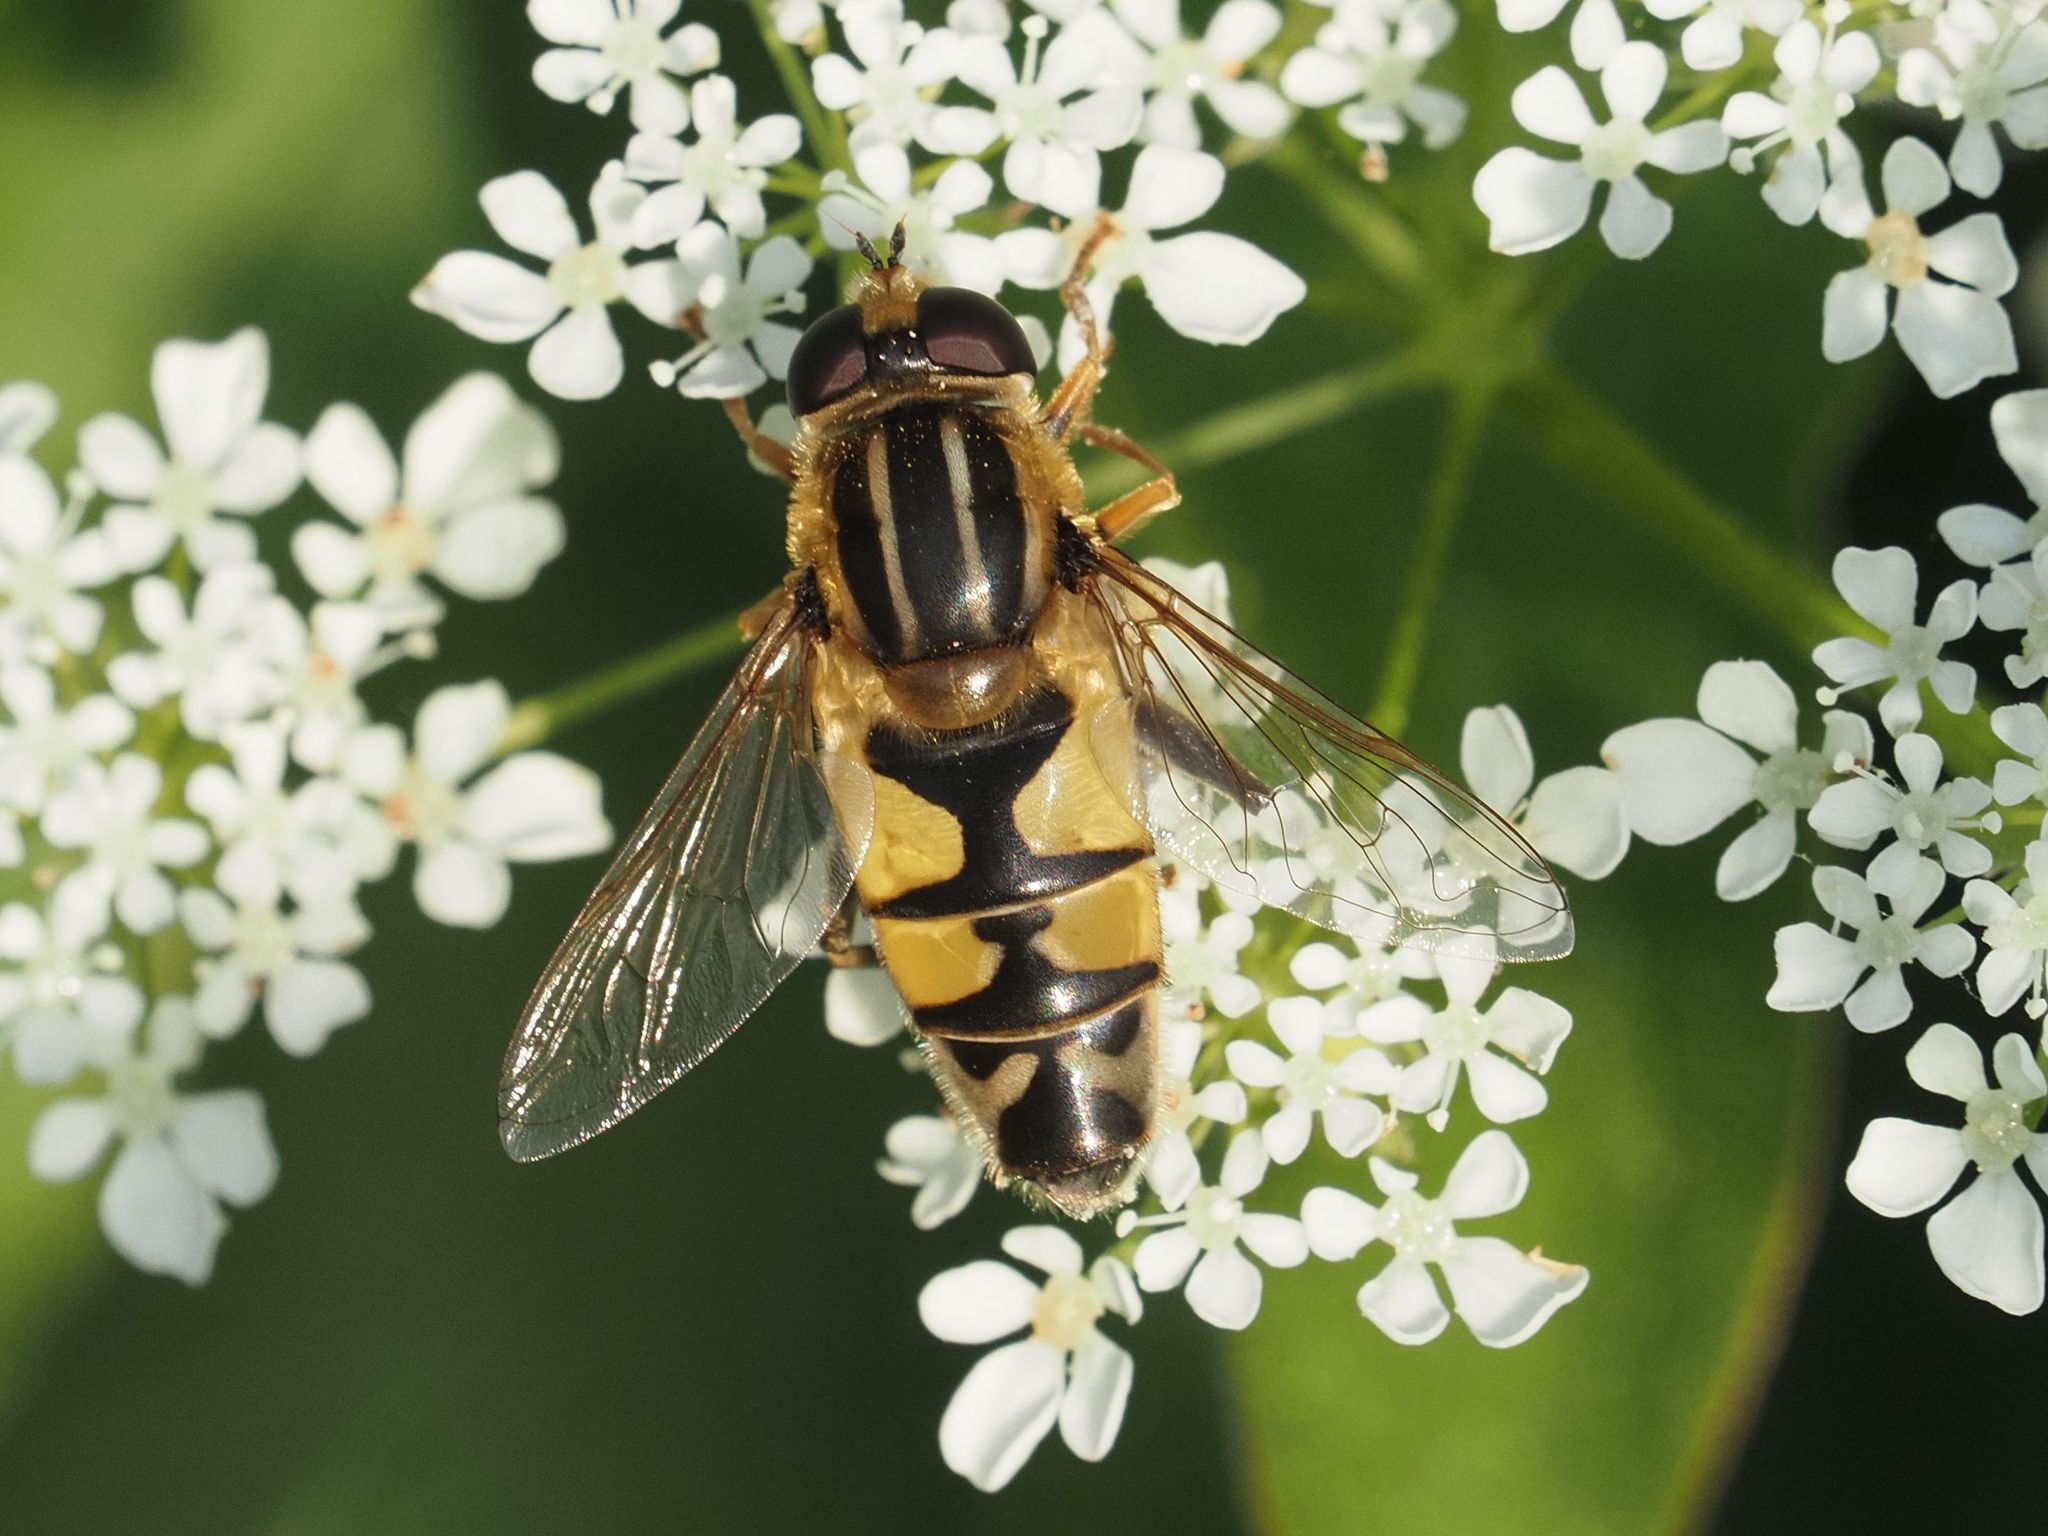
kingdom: Animalia
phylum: Arthropoda
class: Insecta
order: Diptera
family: Syrphidae
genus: Helophilus
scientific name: Helophilus trivittatus
